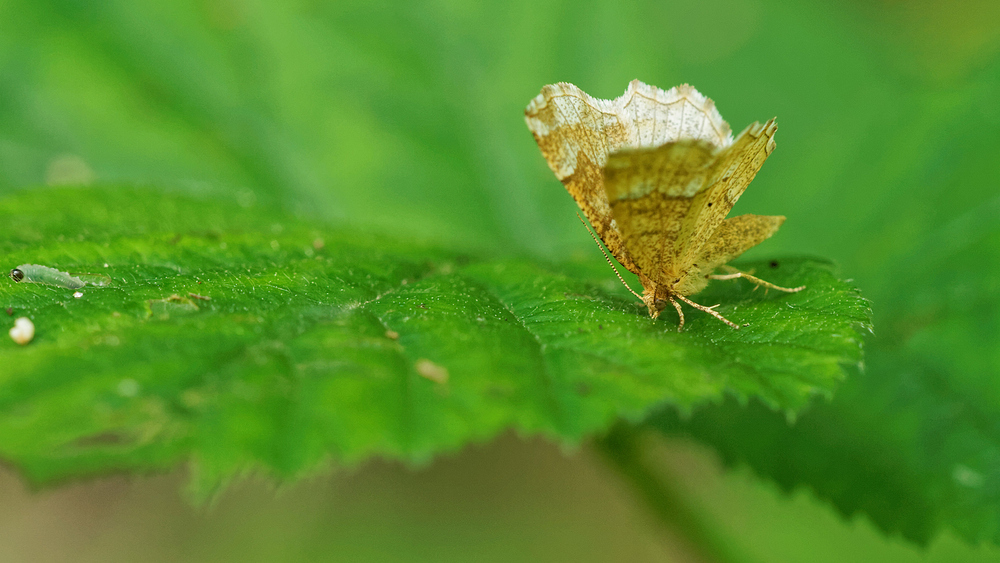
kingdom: Animalia
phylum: Arthropoda
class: Insecta
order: Lepidoptera
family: Geometridae
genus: Cepphis
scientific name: Cepphis advenaria
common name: Little thorn
